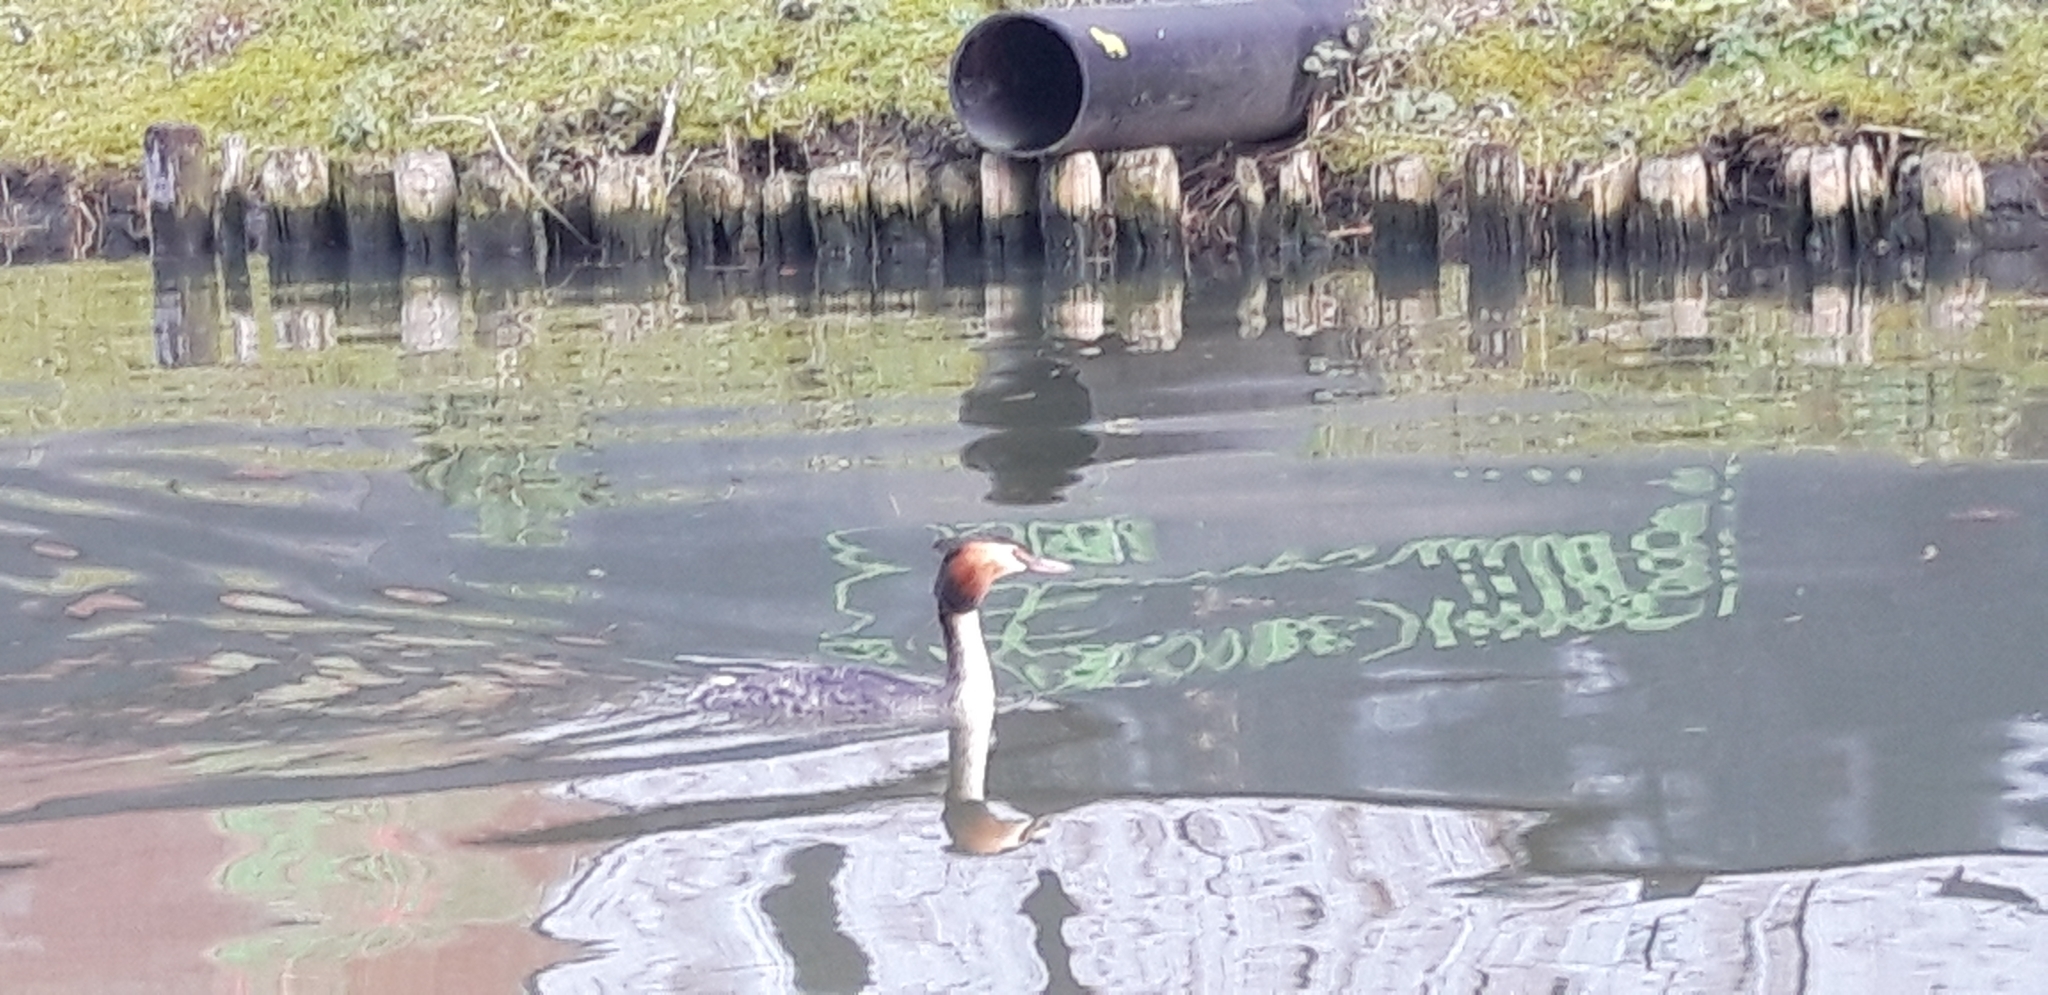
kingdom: Animalia
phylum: Chordata
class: Aves
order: Podicipediformes
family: Podicipedidae
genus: Podiceps
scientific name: Podiceps cristatus
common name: Great crested grebe
